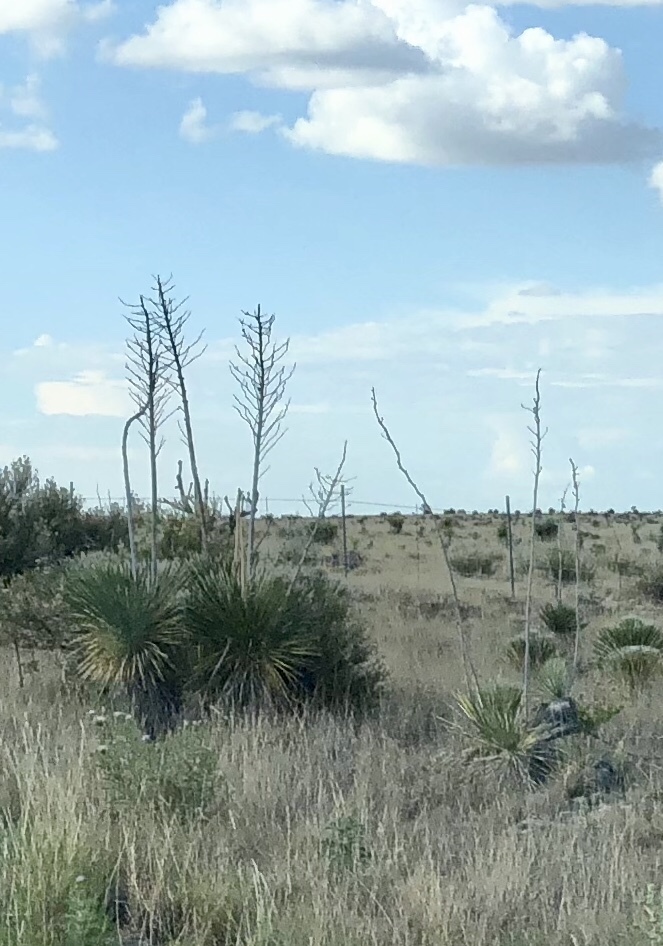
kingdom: Plantae
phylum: Tracheophyta
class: Liliopsida
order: Asparagales
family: Asparagaceae
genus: Yucca
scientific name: Yucca elata
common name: Palmella
